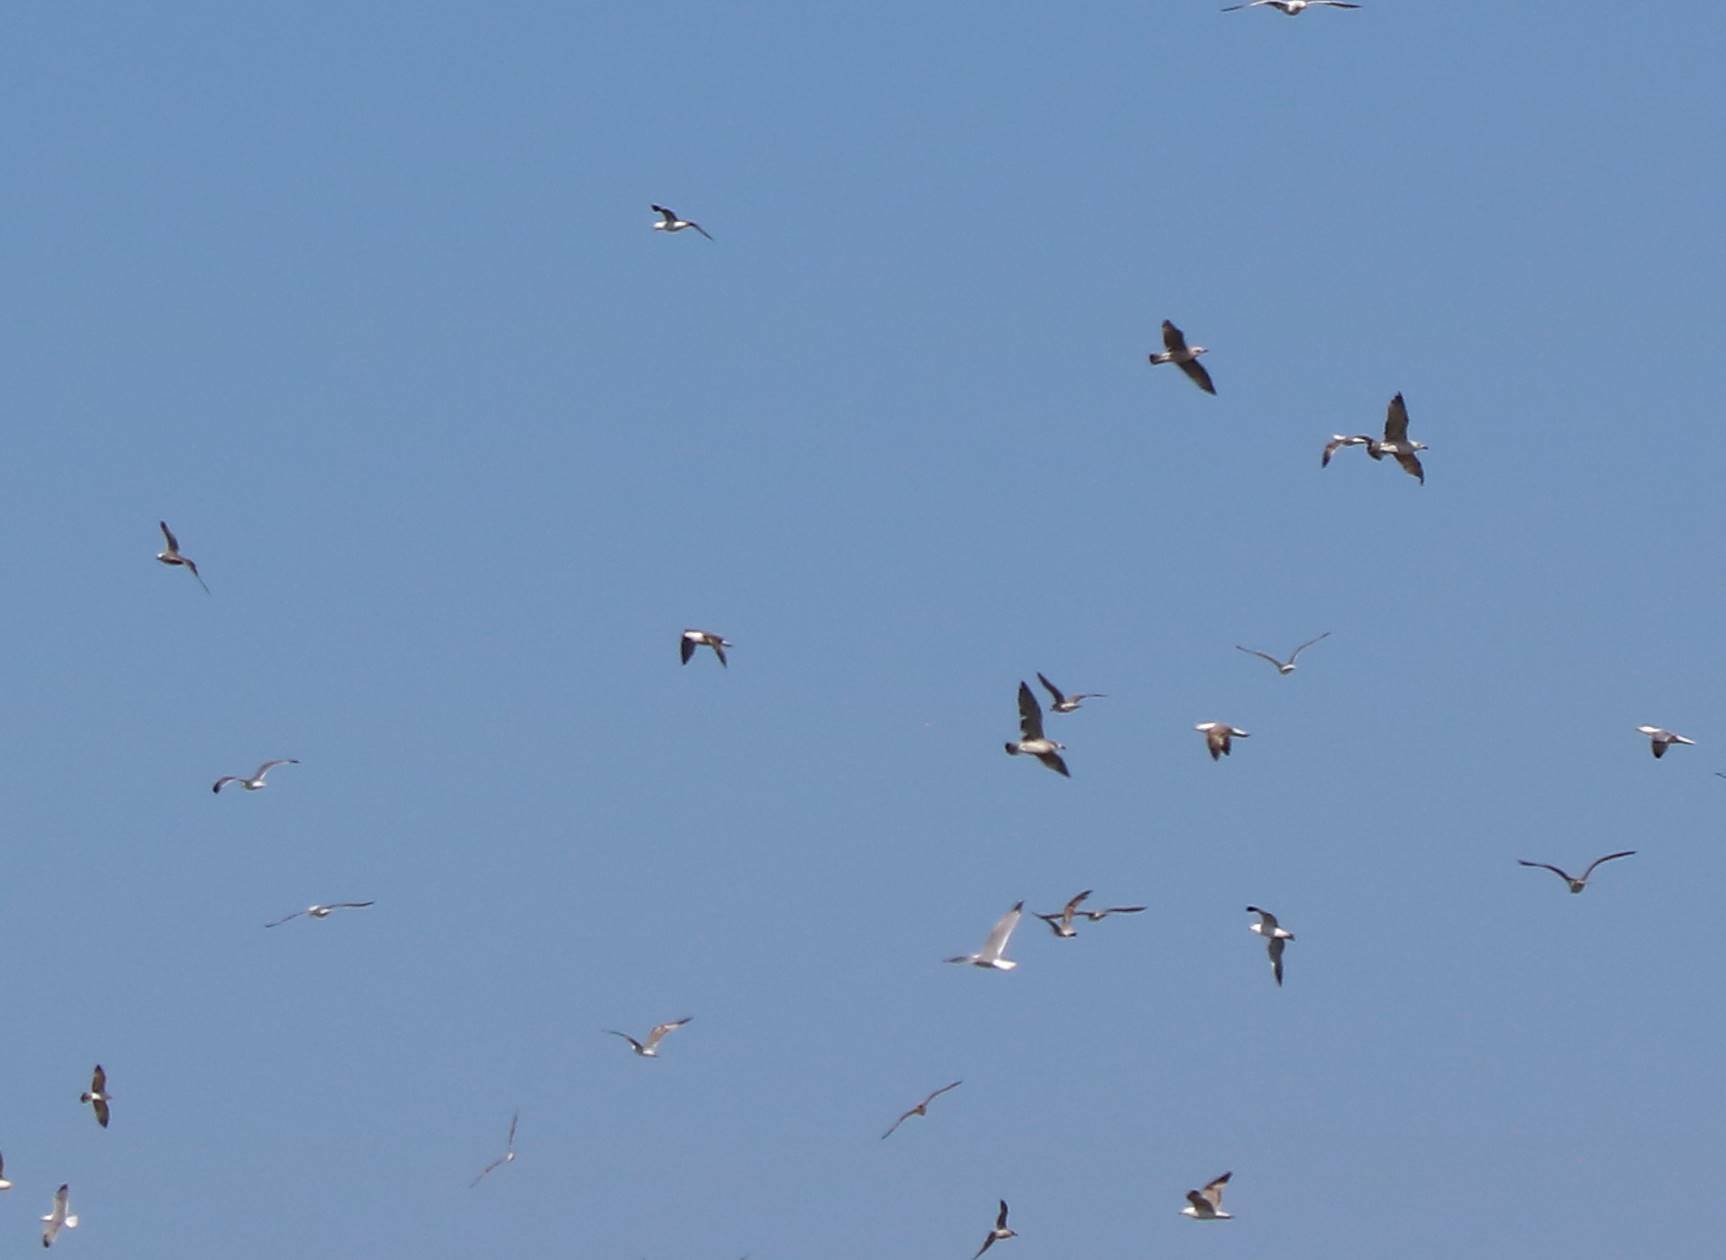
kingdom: Animalia
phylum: Chordata
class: Aves
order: Charadriiformes
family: Laridae
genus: Larus
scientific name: Larus michahellis
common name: Yellow-legged gull
